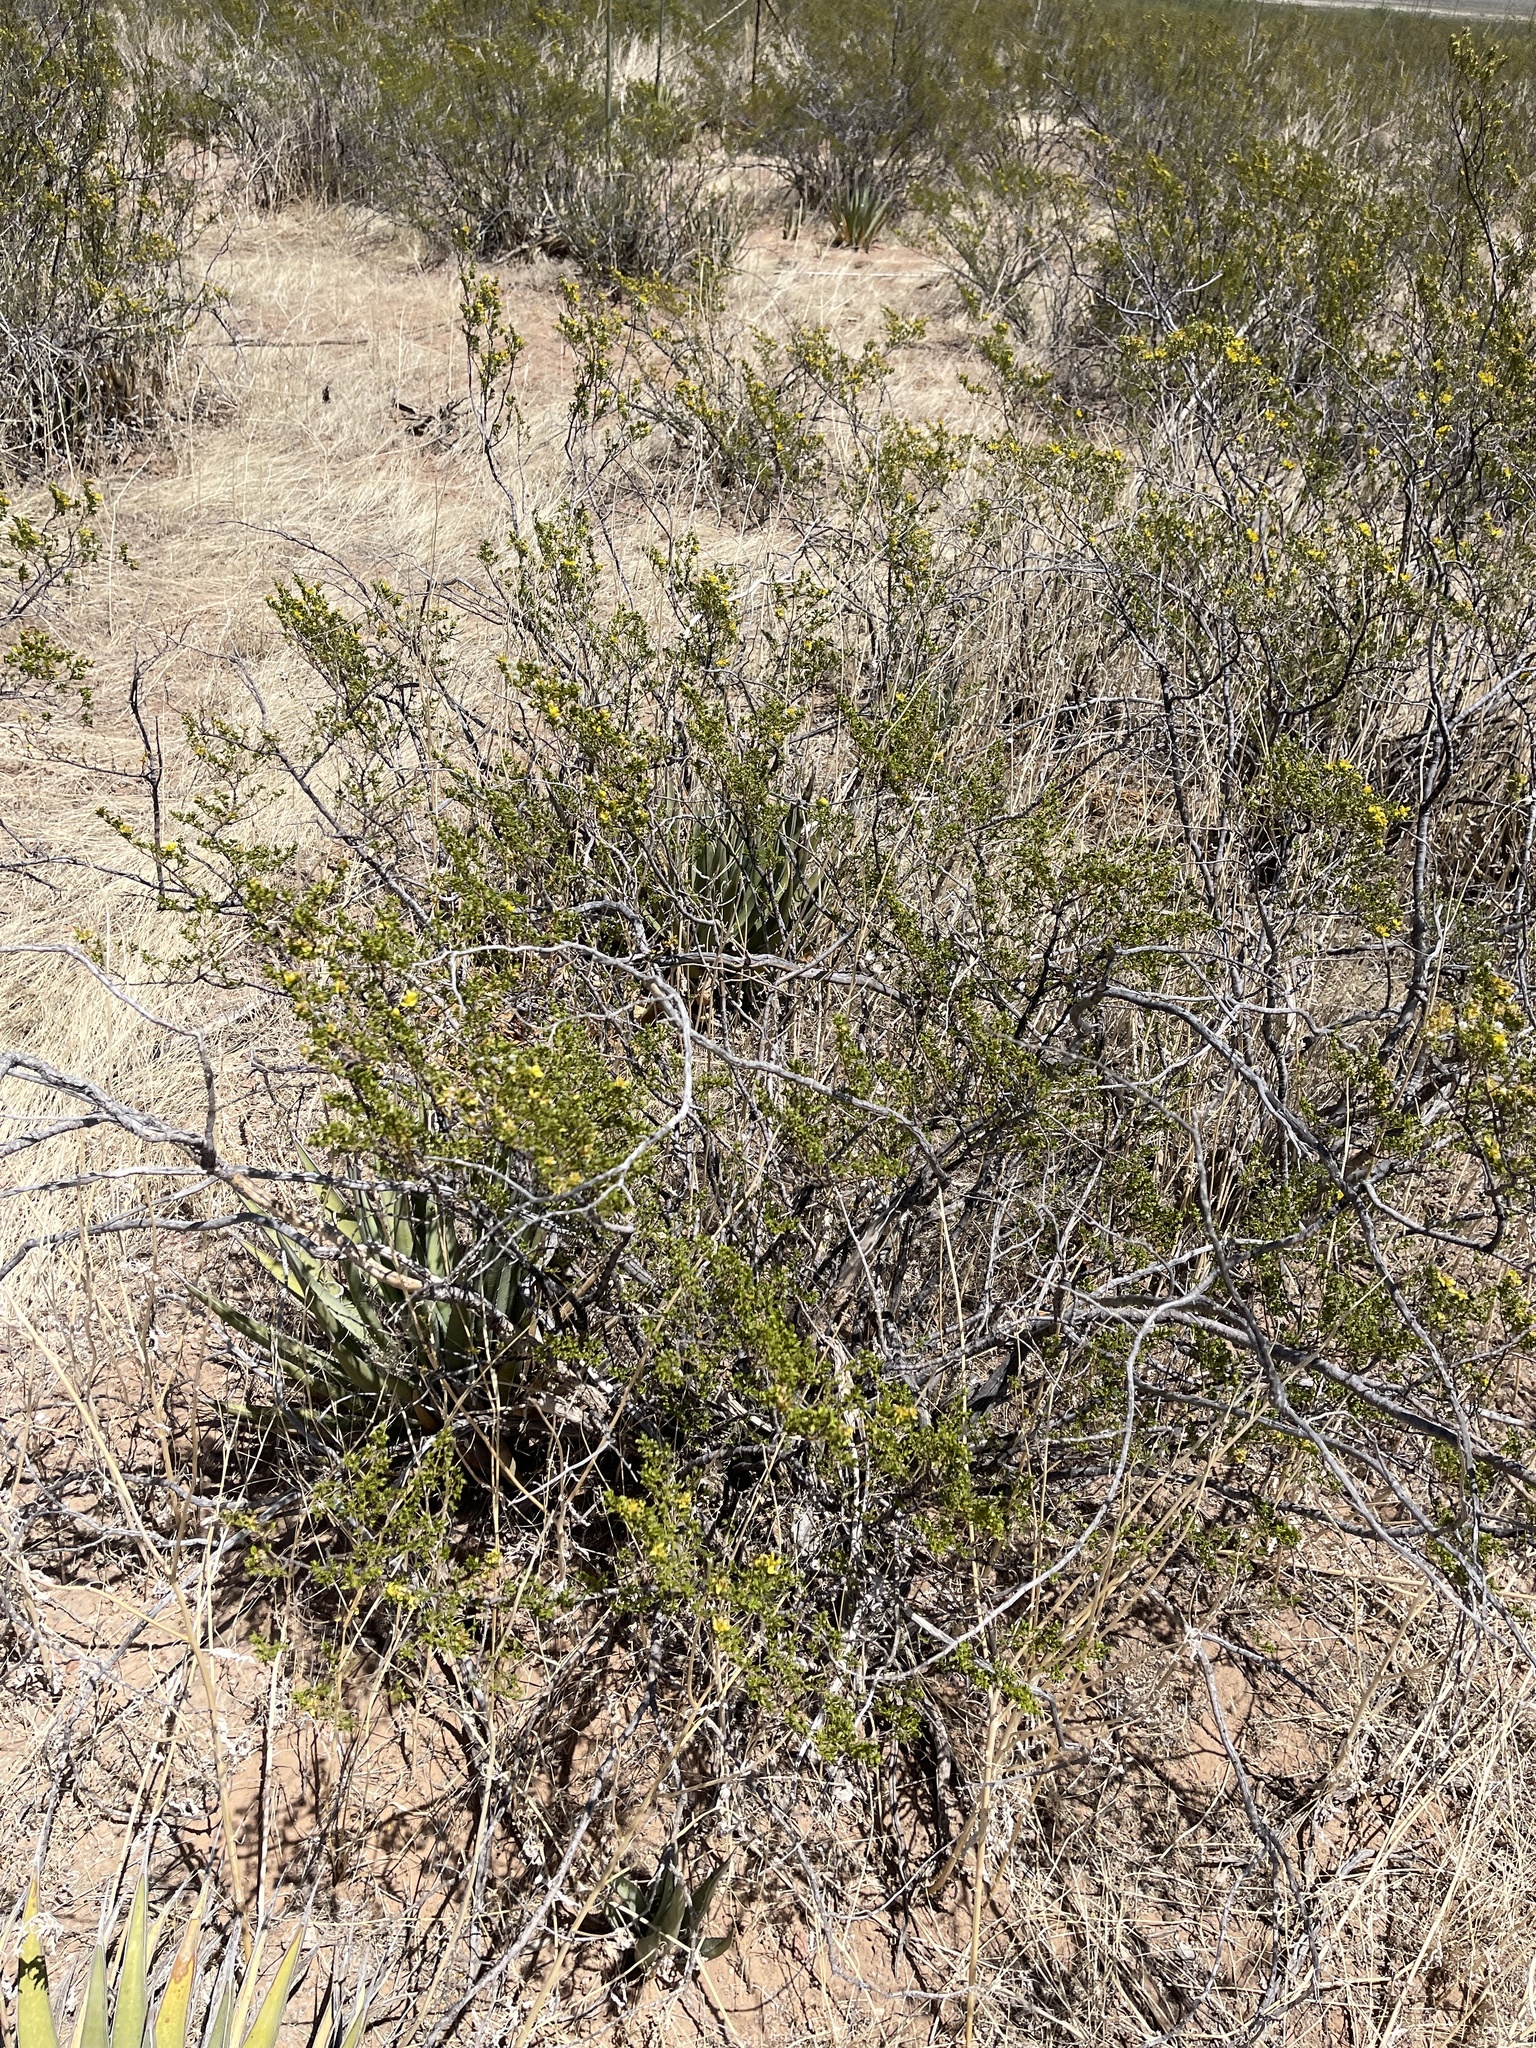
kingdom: Plantae
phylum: Tracheophyta
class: Magnoliopsida
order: Zygophyllales
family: Zygophyllaceae
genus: Larrea
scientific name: Larrea tridentata
